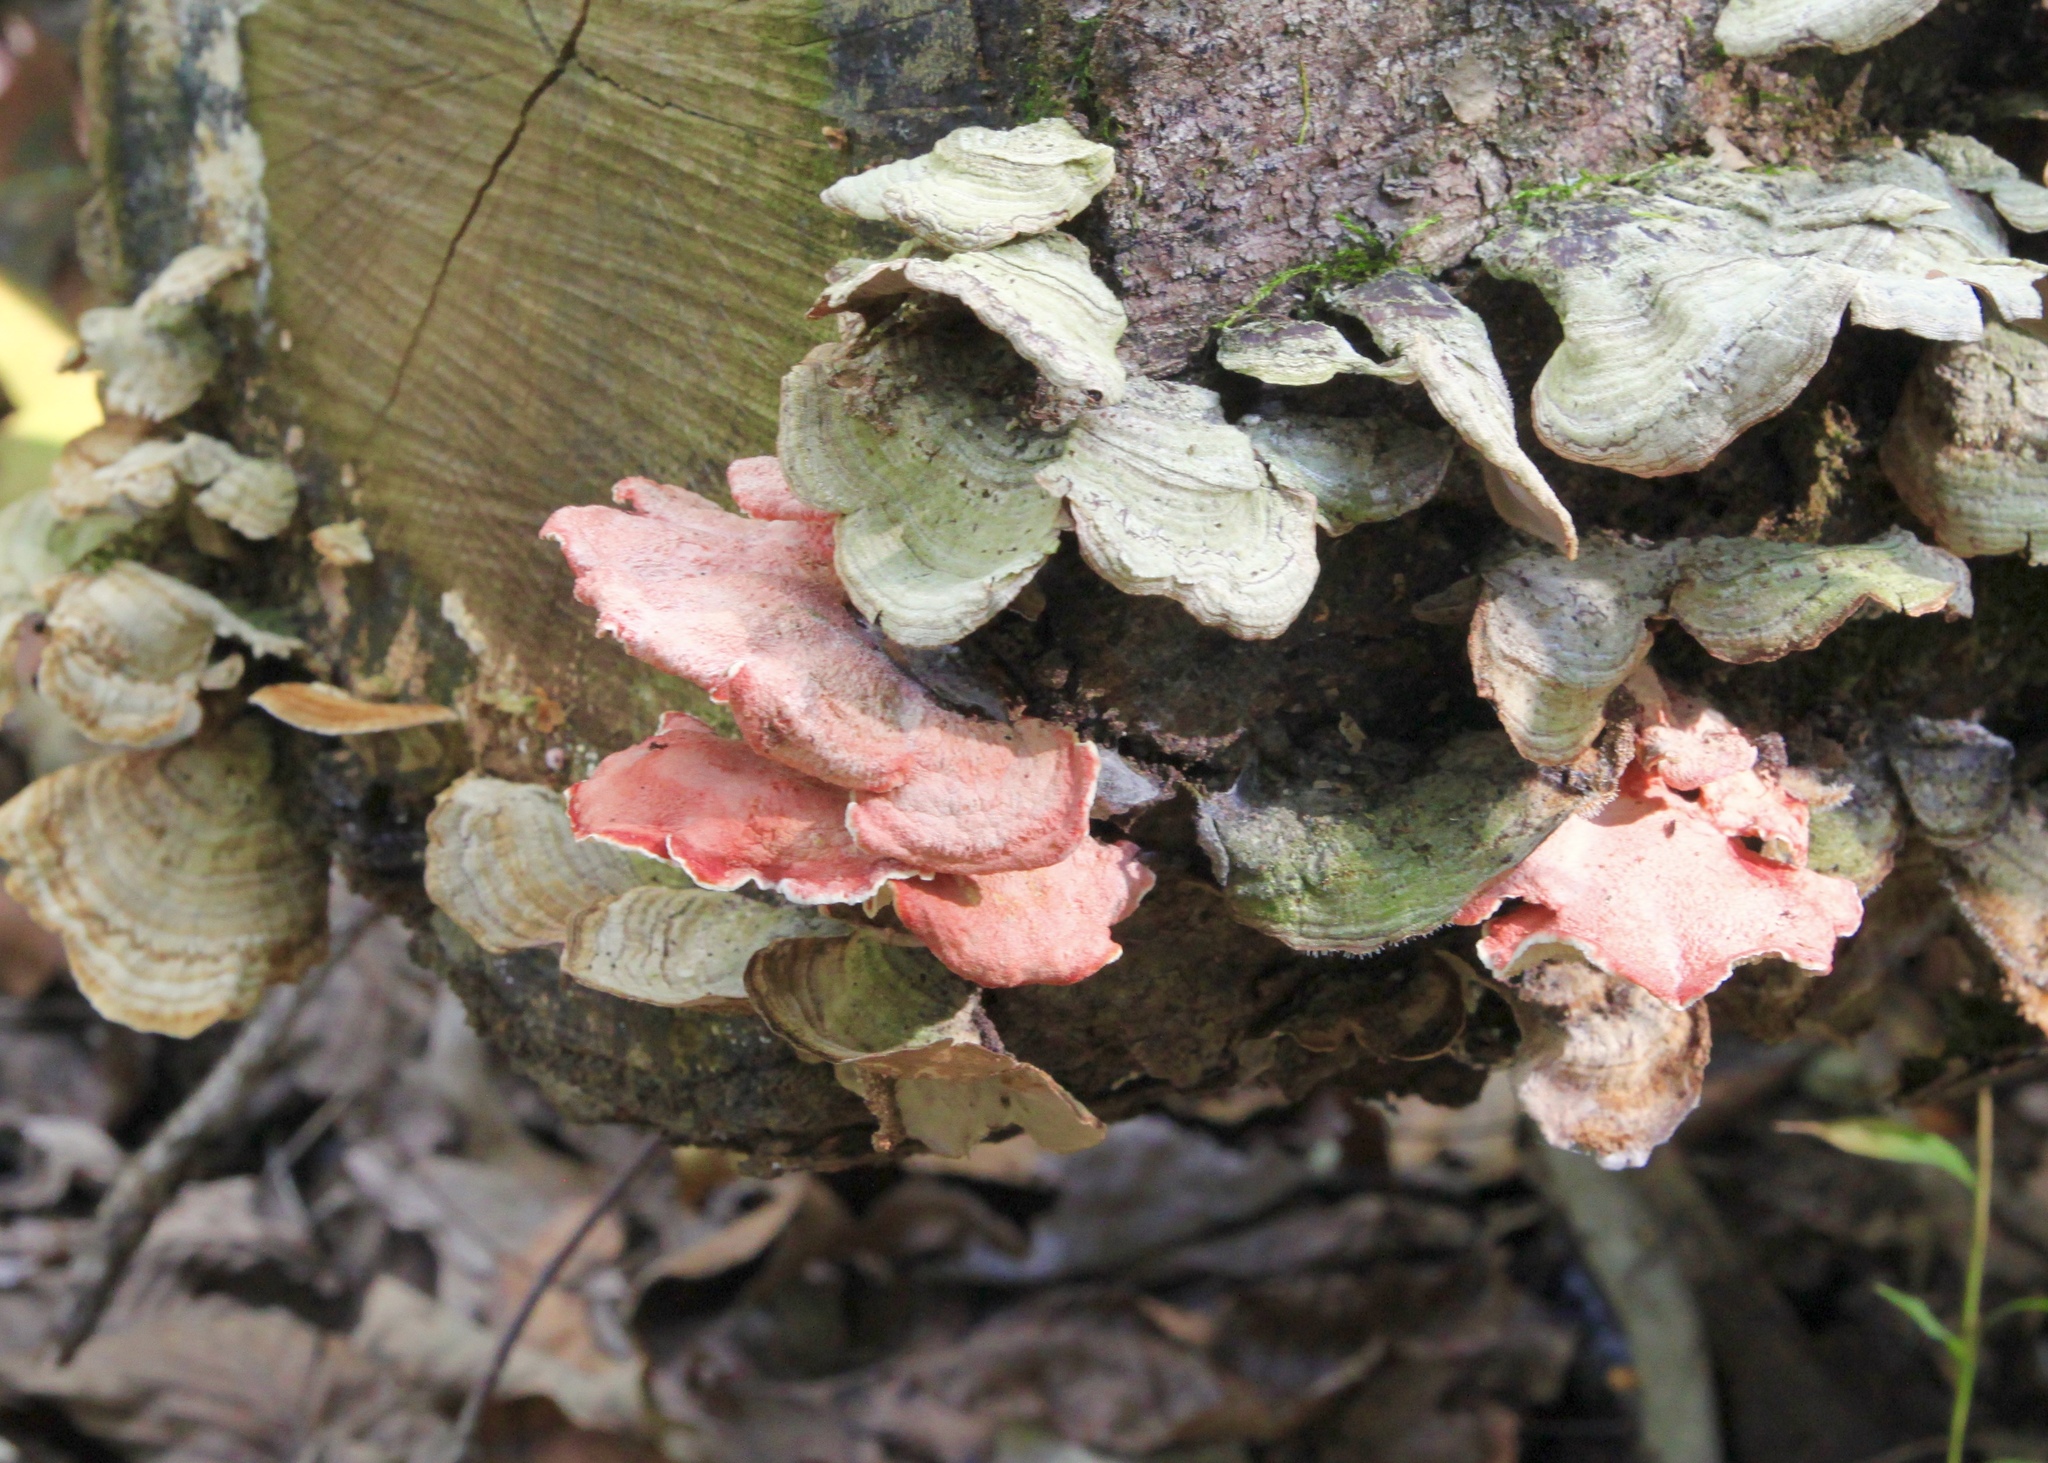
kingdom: Fungi
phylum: Basidiomycota
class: Agaricomycetes
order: Polyporales
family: Irpicaceae
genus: Byssomerulius
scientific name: Byssomerulius incarnatus
